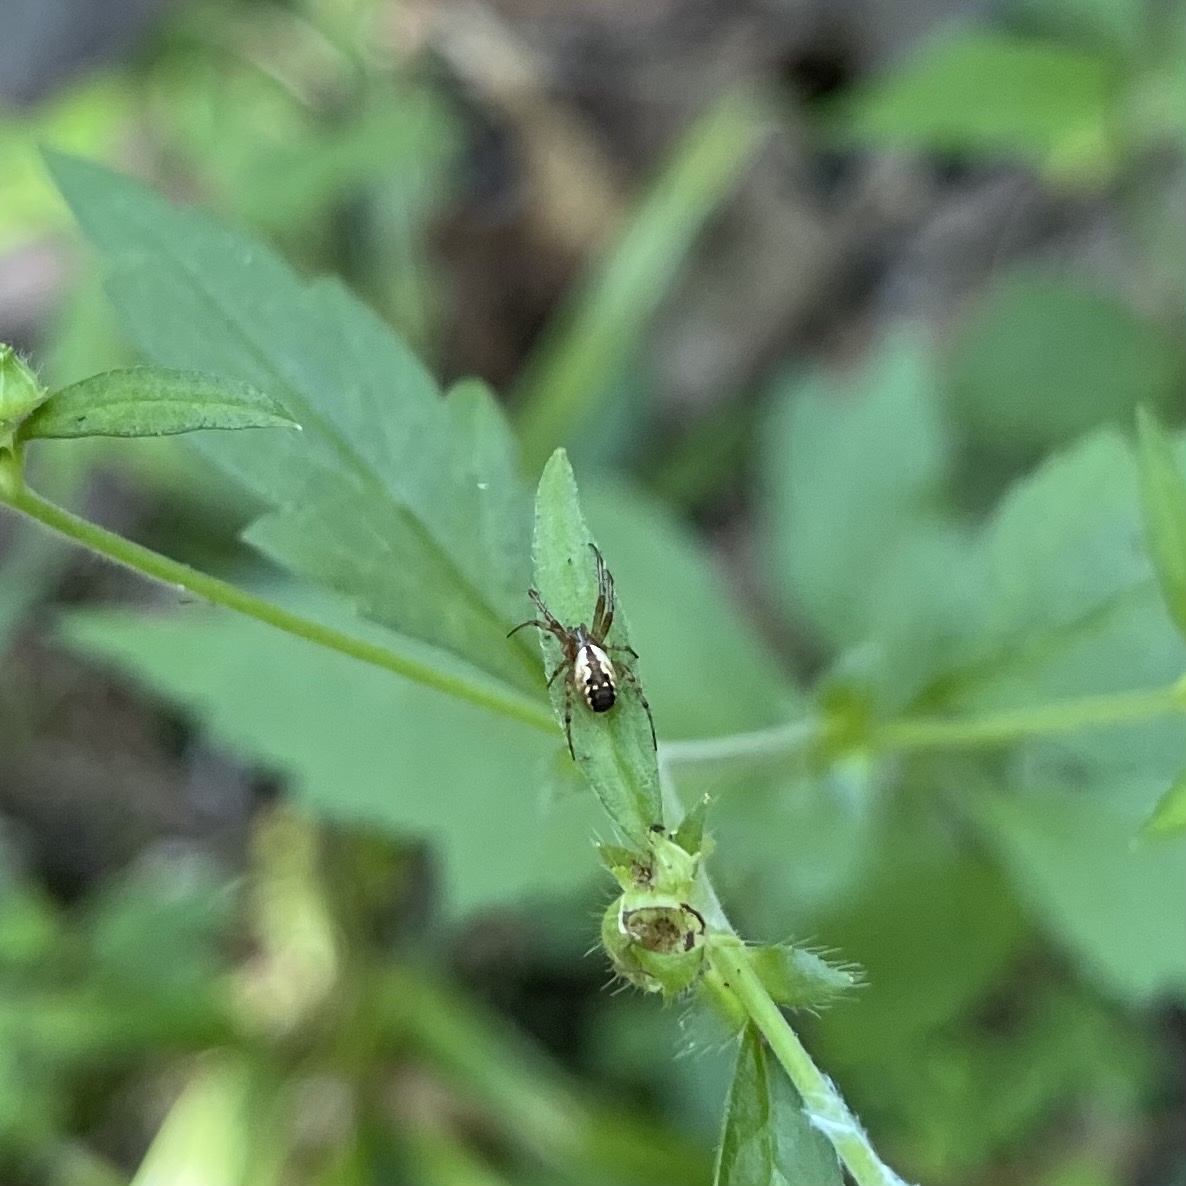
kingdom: Animalia
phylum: Arthropoda
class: Arachnida
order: Araneae
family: Araneidae
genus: Mangora
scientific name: Mangora placida
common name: Tuft-legged orbweaver
